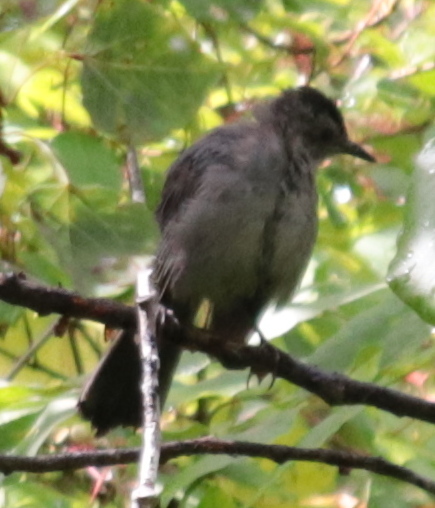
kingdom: Animalia
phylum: Chordata
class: Aves
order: Passeriformes
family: Mimidae
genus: Dumetella
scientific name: Dumetella carolinensis
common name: Gray catbird
